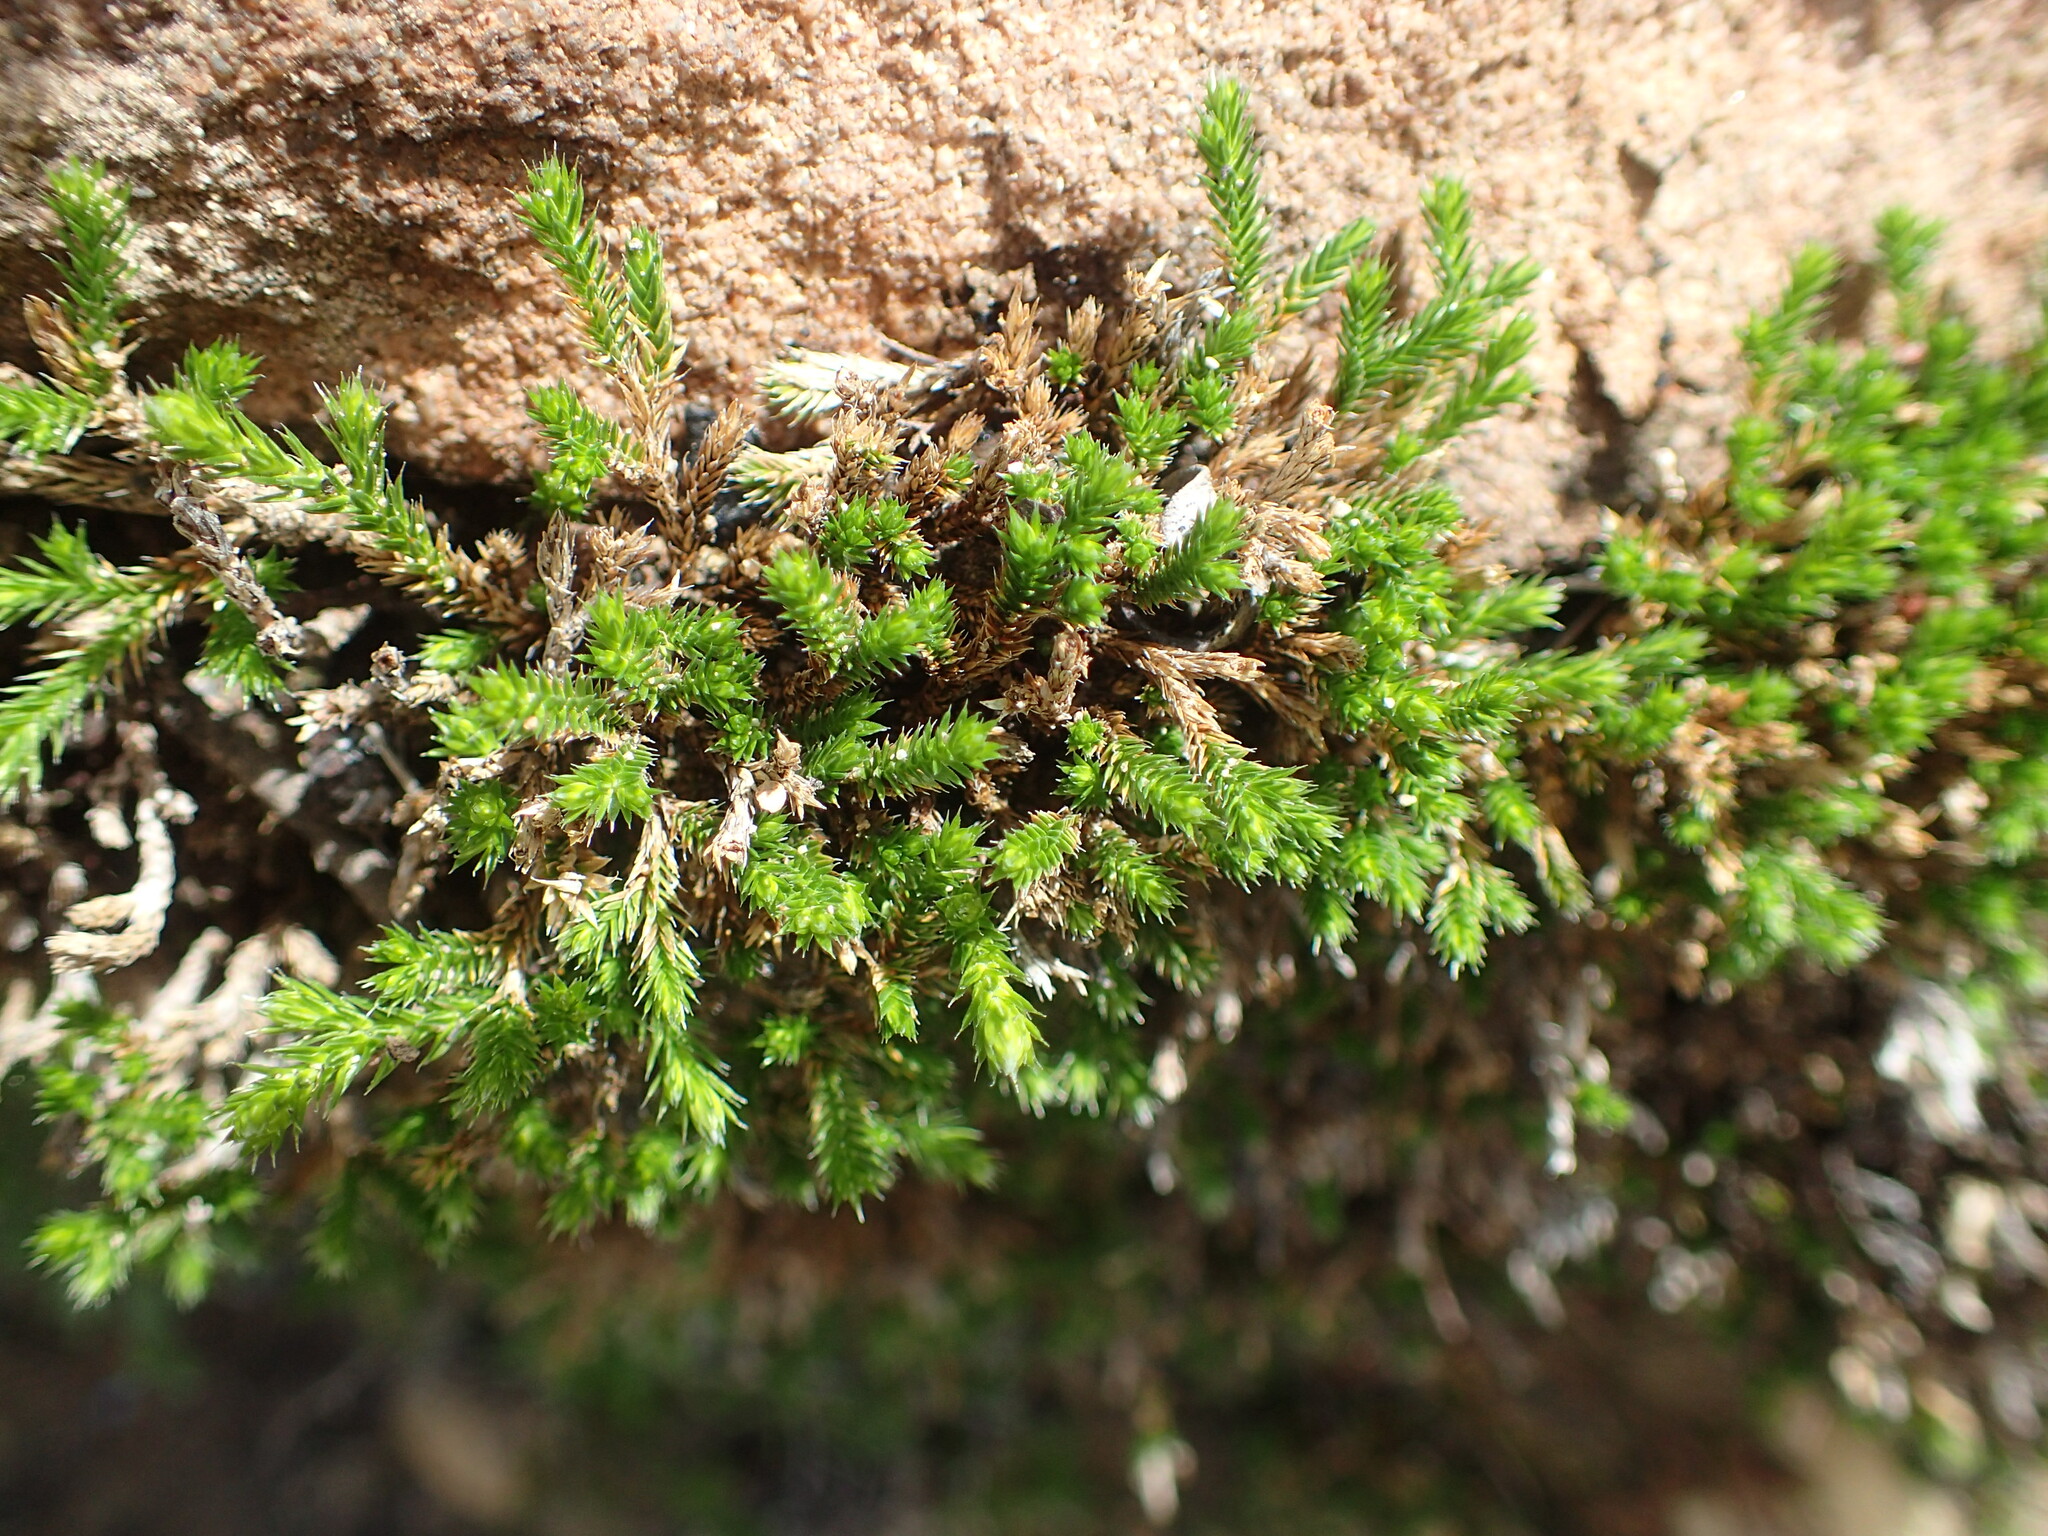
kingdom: Plantae
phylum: Tracheophyta
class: Lycopodiopsida
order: Selaginellales
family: Selaginellaceae
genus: Selaginella
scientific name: Selaginella bigelovii
